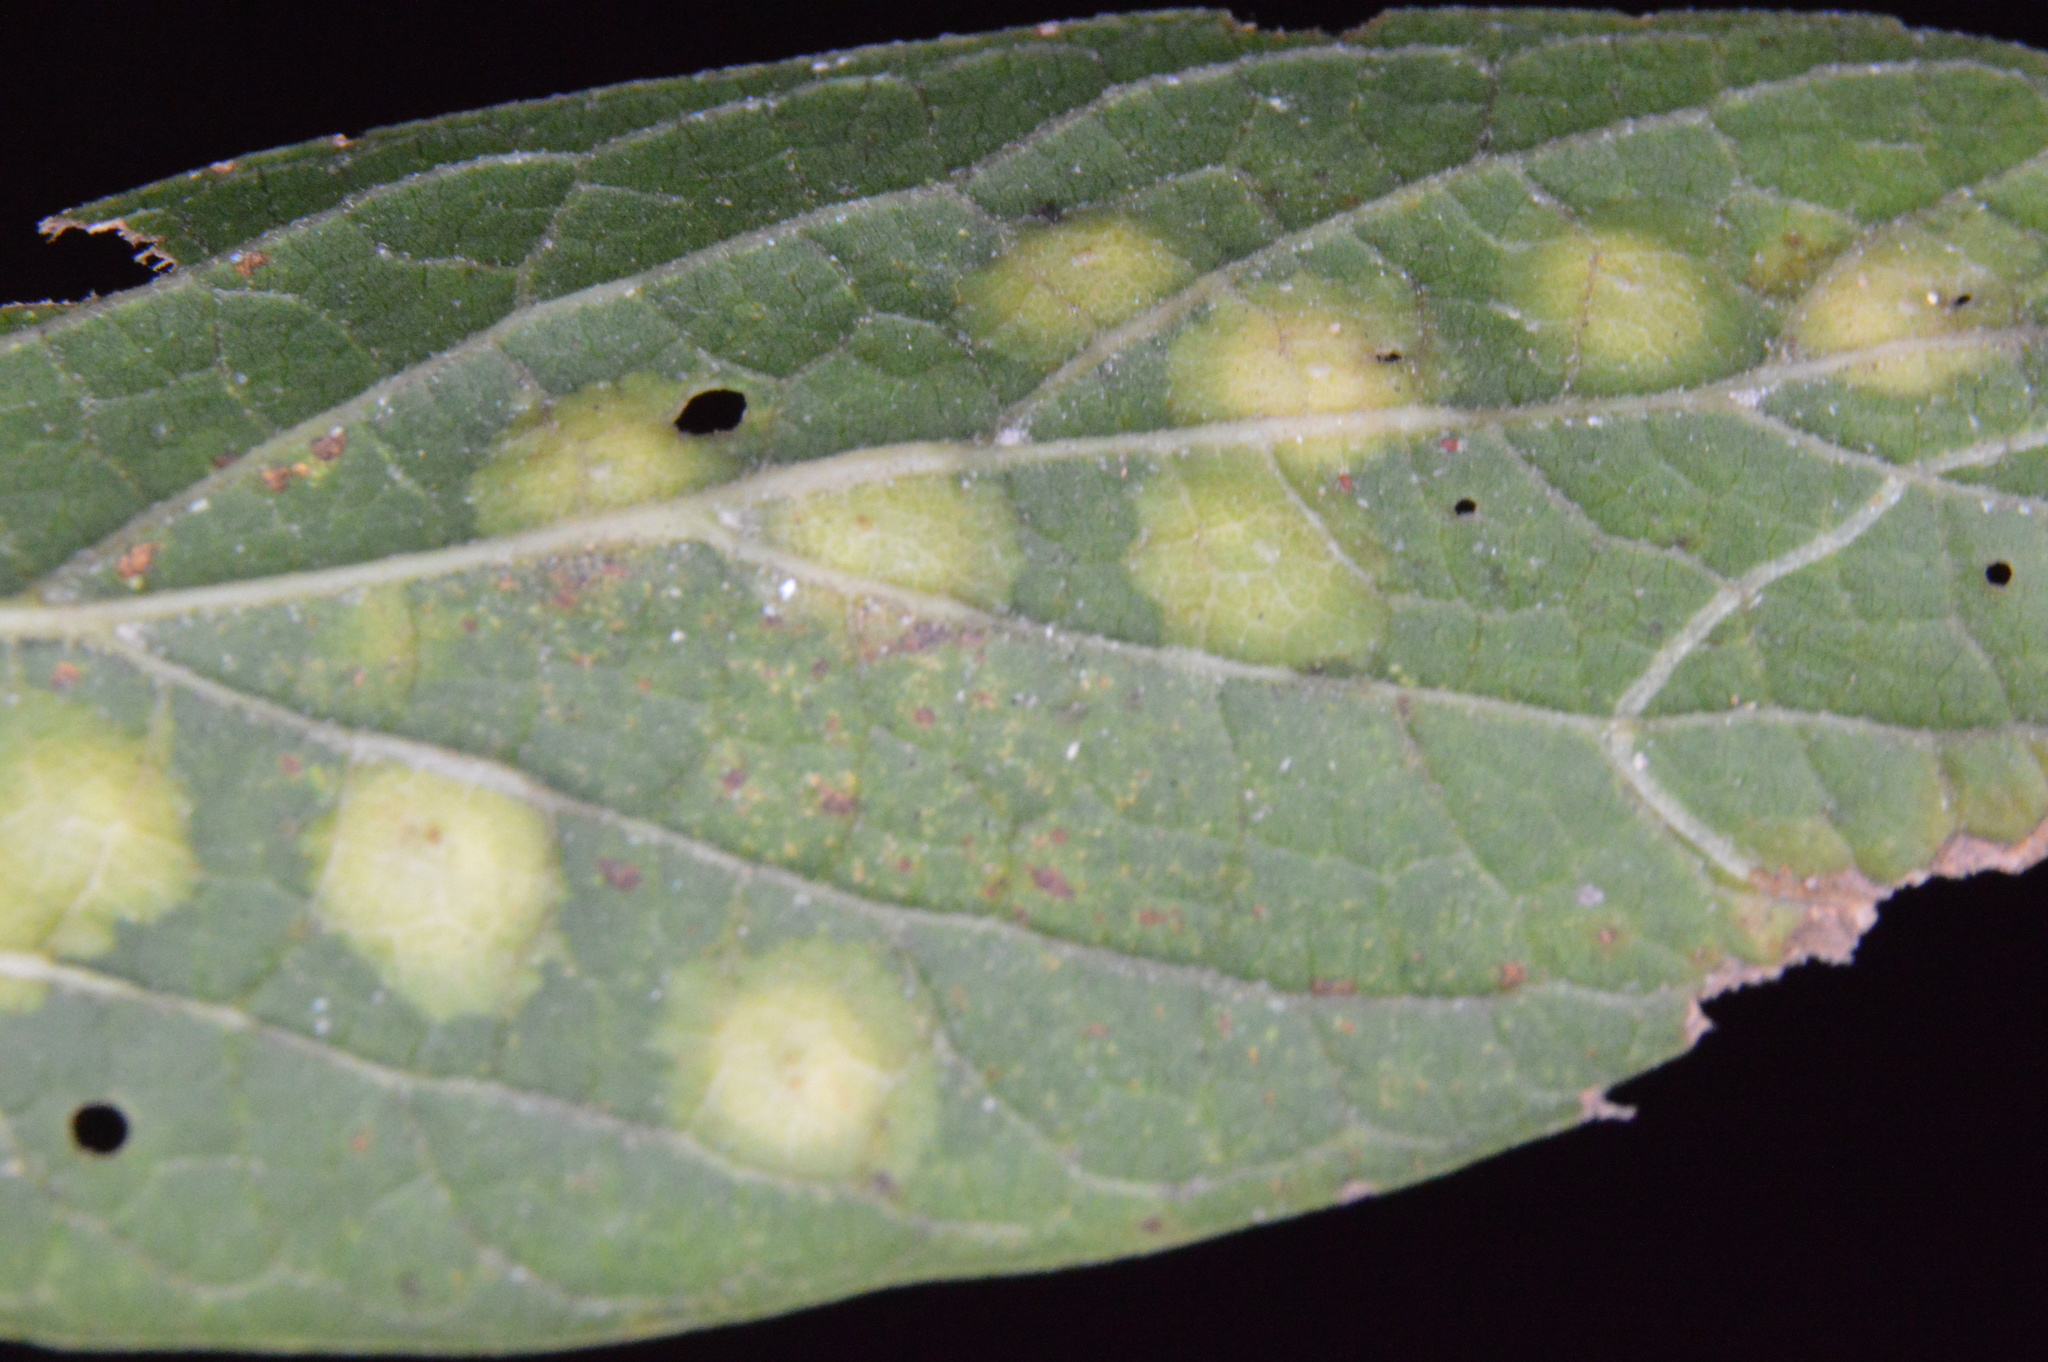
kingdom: Animalia
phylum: Arthropoda
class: Insecta
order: Hemiptera
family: Aphalaridae
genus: Pachypsylla
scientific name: Pachypsylla celtidisvesicula
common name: Hackberry blister gall psyllid
